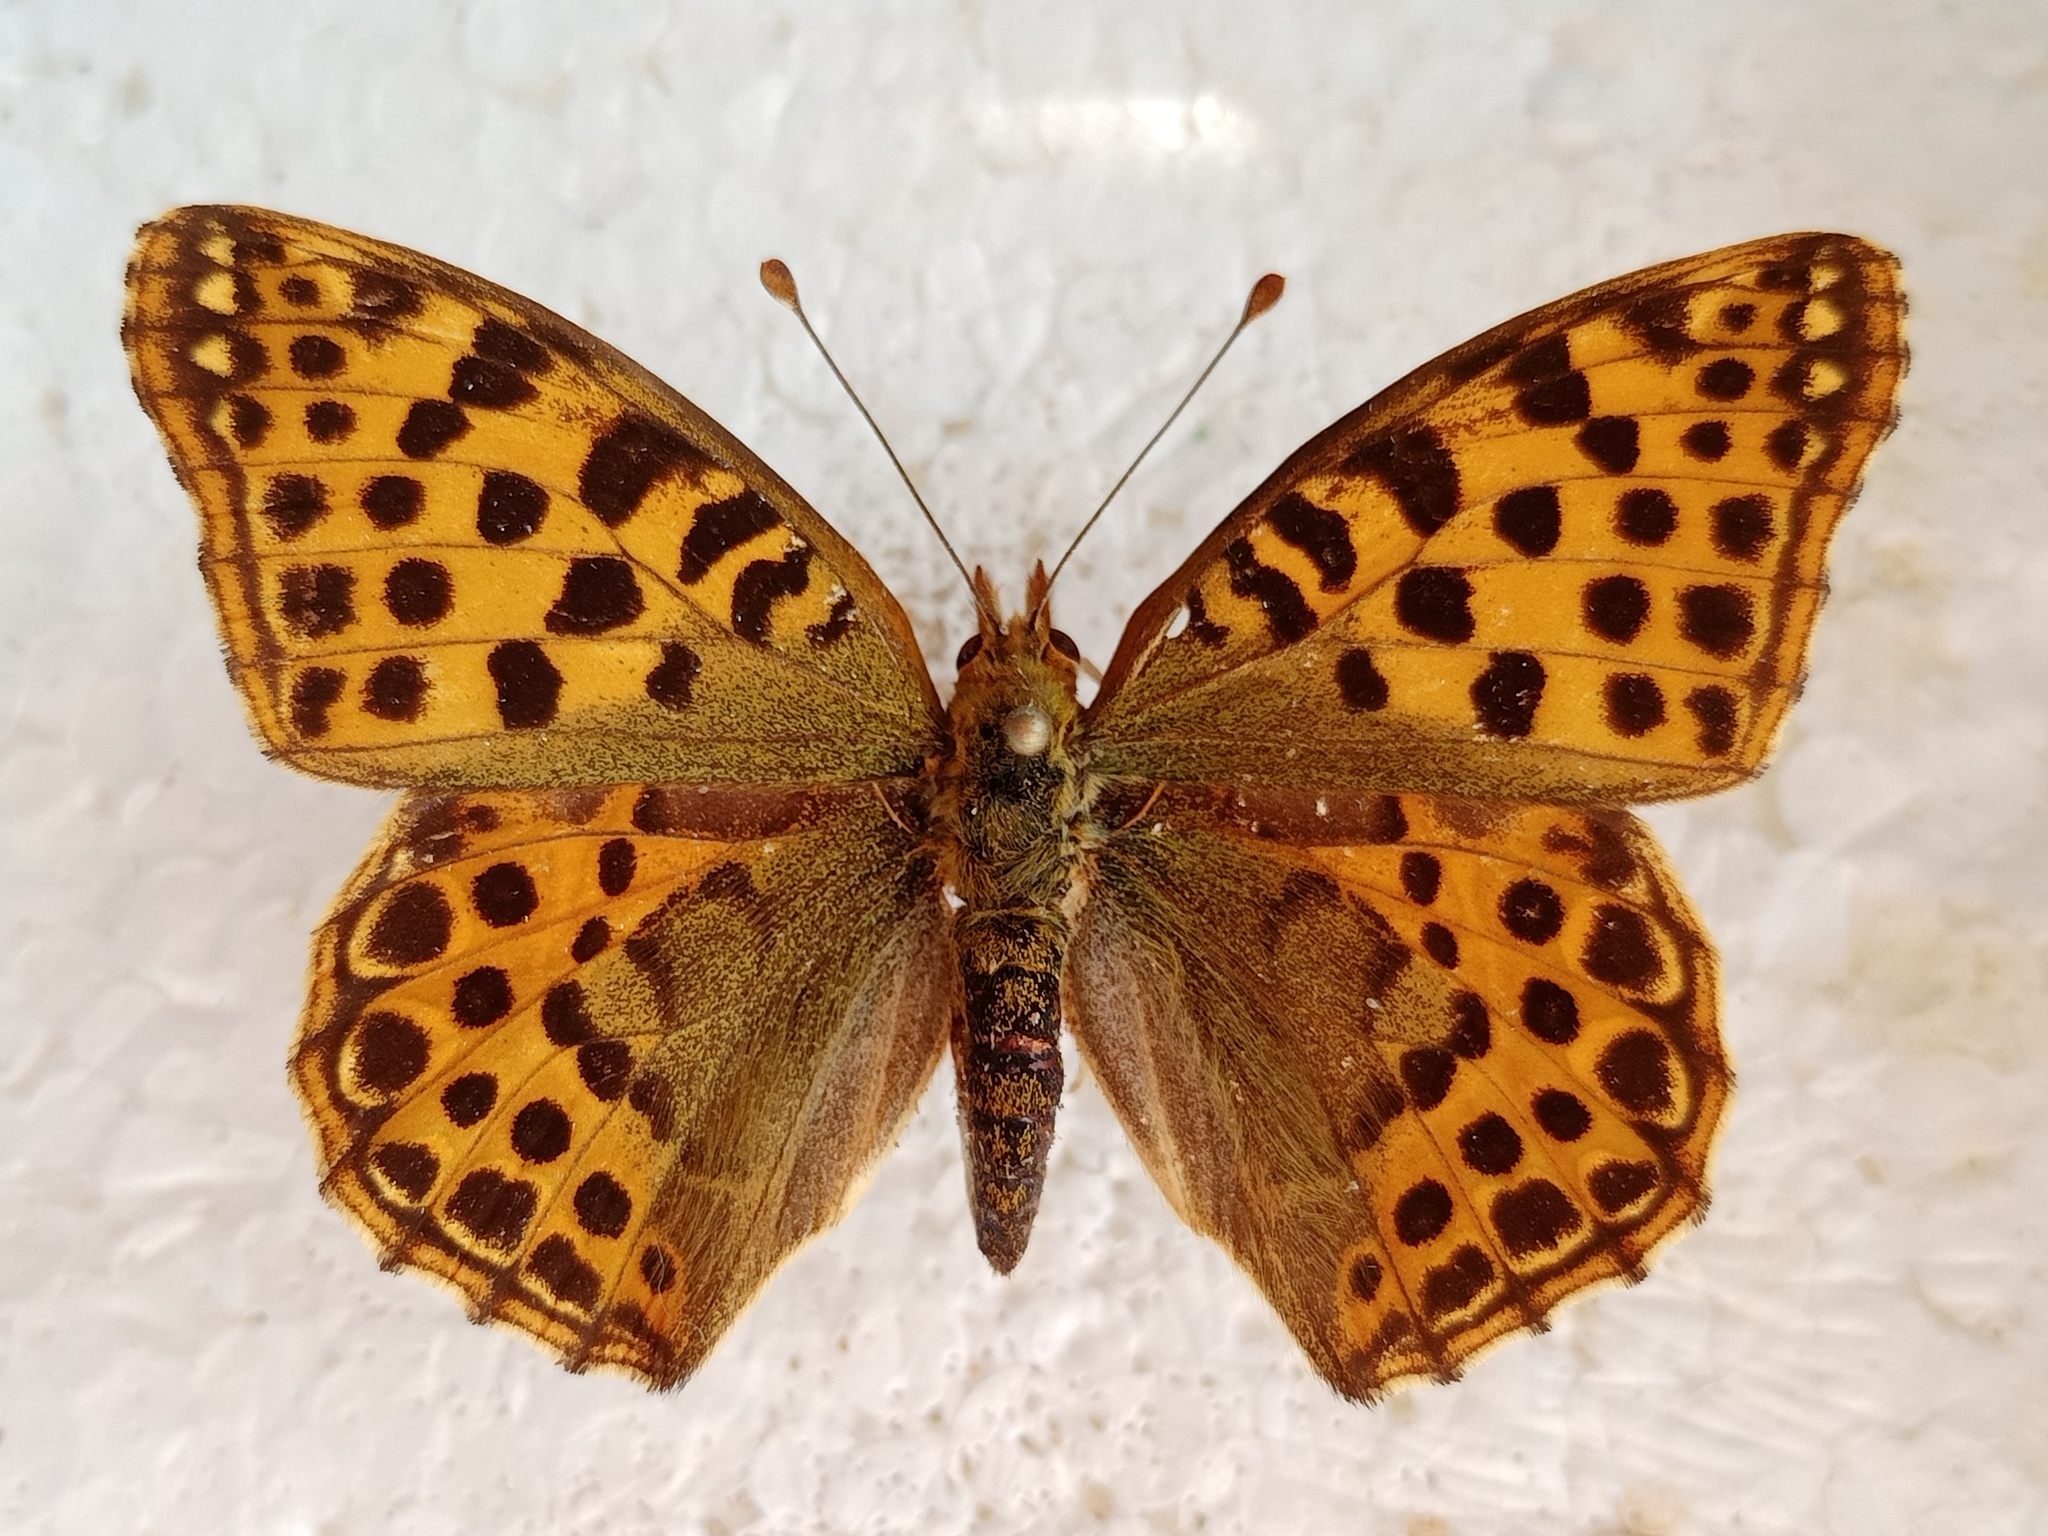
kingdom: Animalia
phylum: Arthropoda
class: Insecta
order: Lepidoptera
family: Nymphalidae
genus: Issoria
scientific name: Issoria lathonia
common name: Queen of spain fritillary
